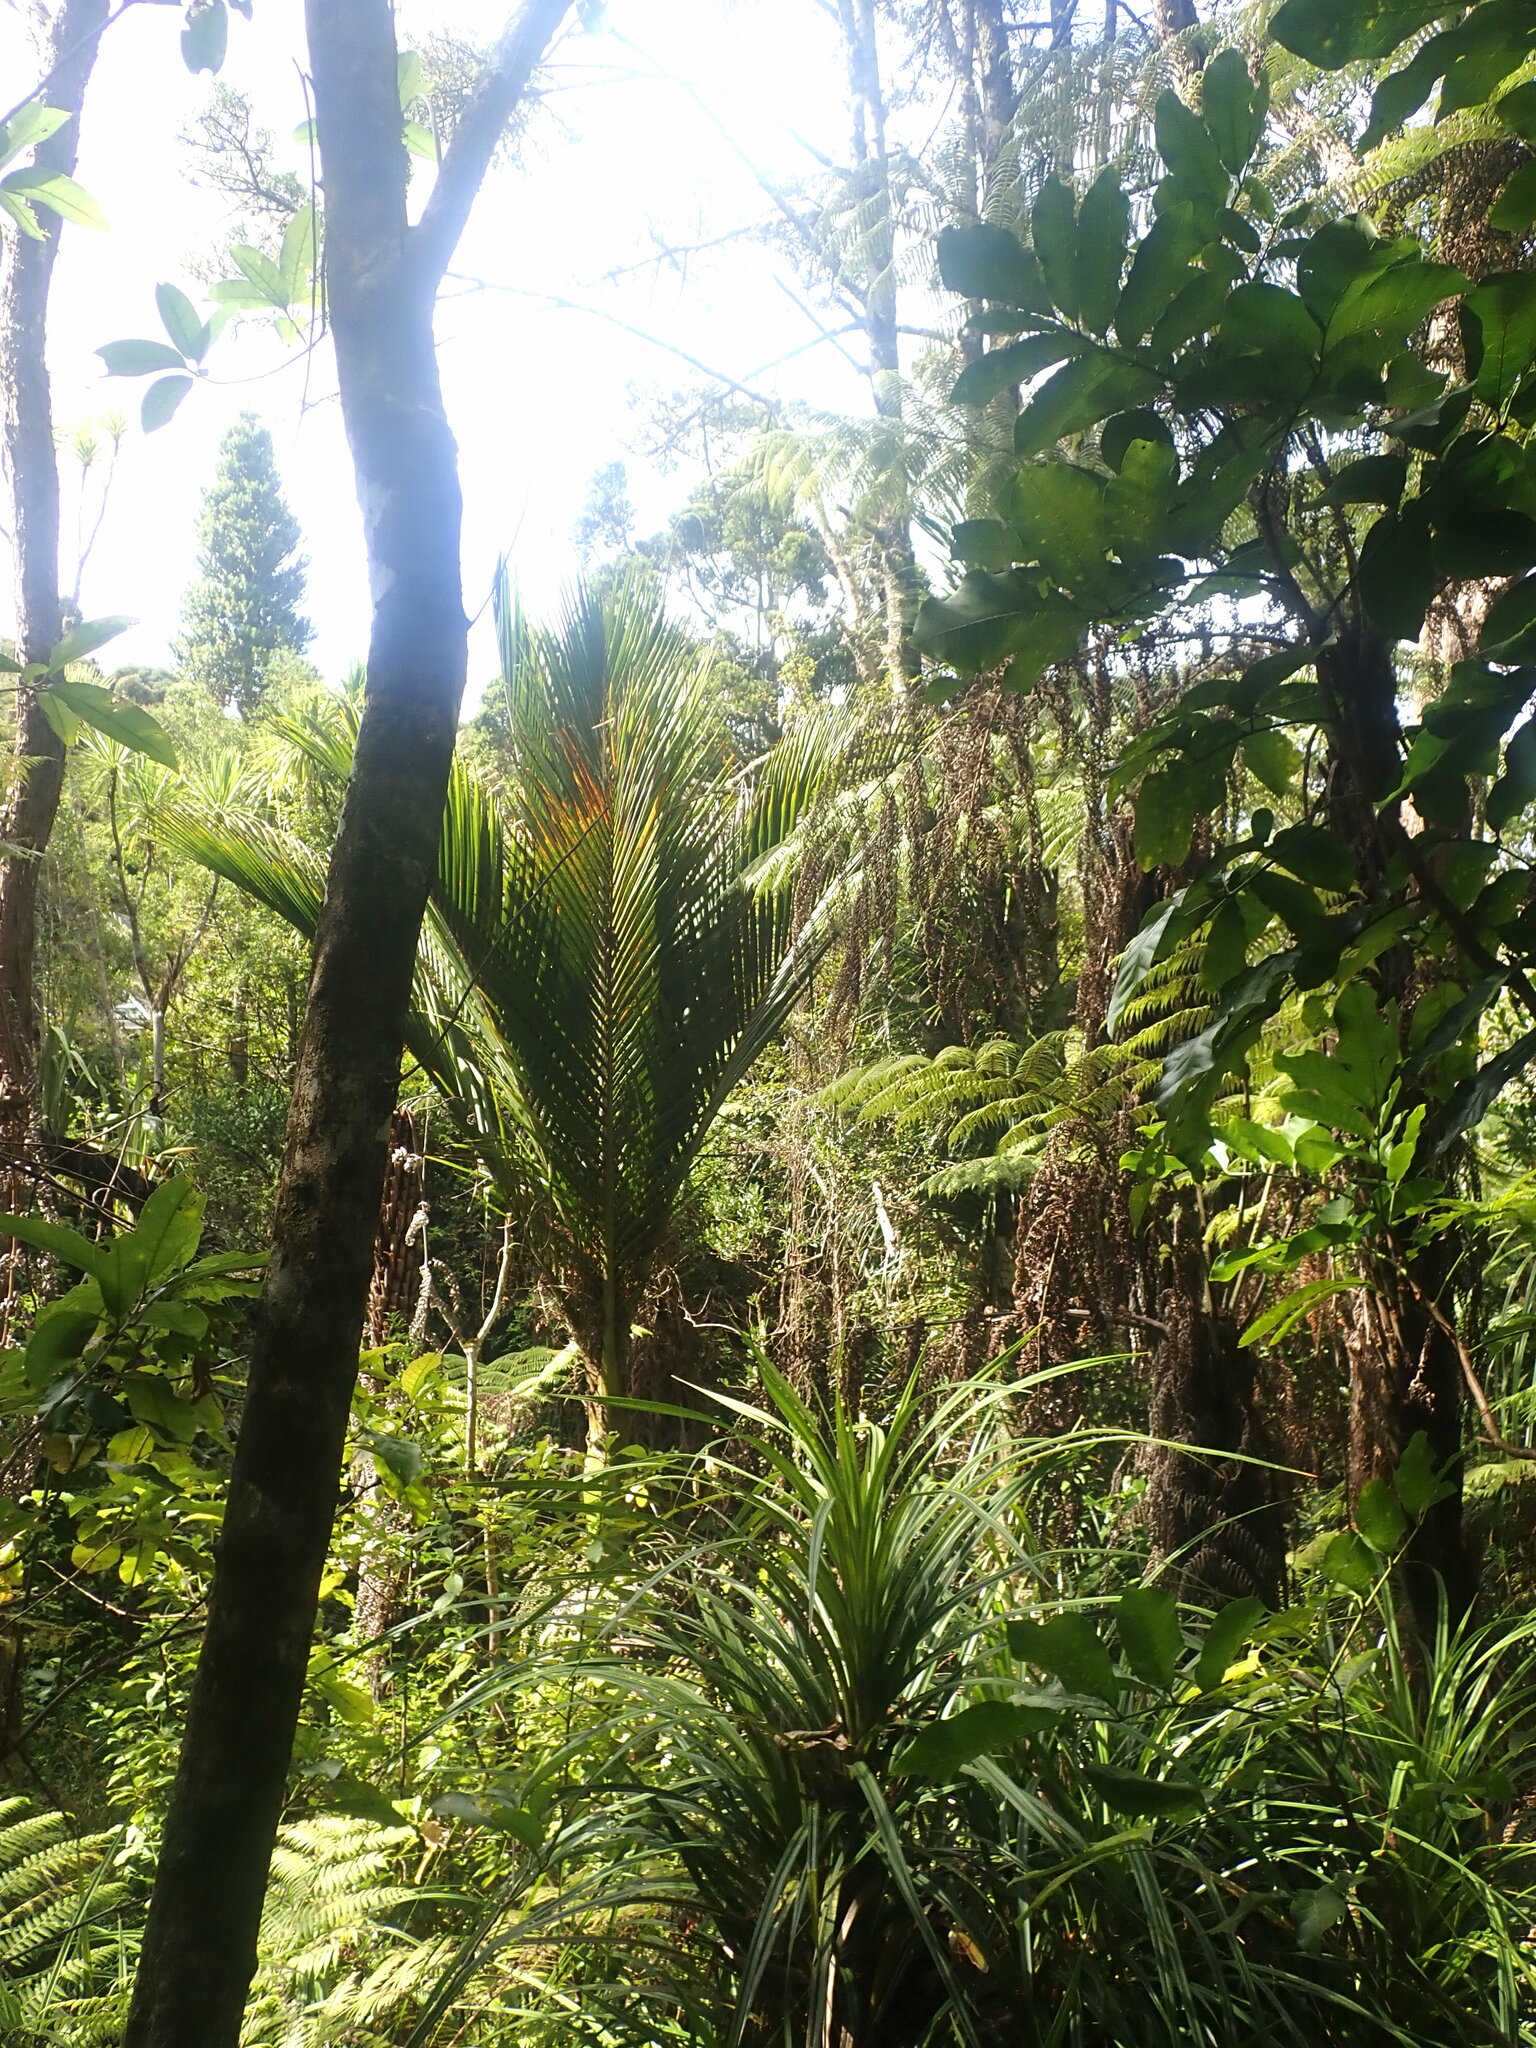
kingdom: Plantae
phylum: Tracheophyta
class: Liliopsida
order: Arecales
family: Arecaceae
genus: Rhopalostylis
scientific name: Rhopalostylis sapida
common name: Feather-duster palm
